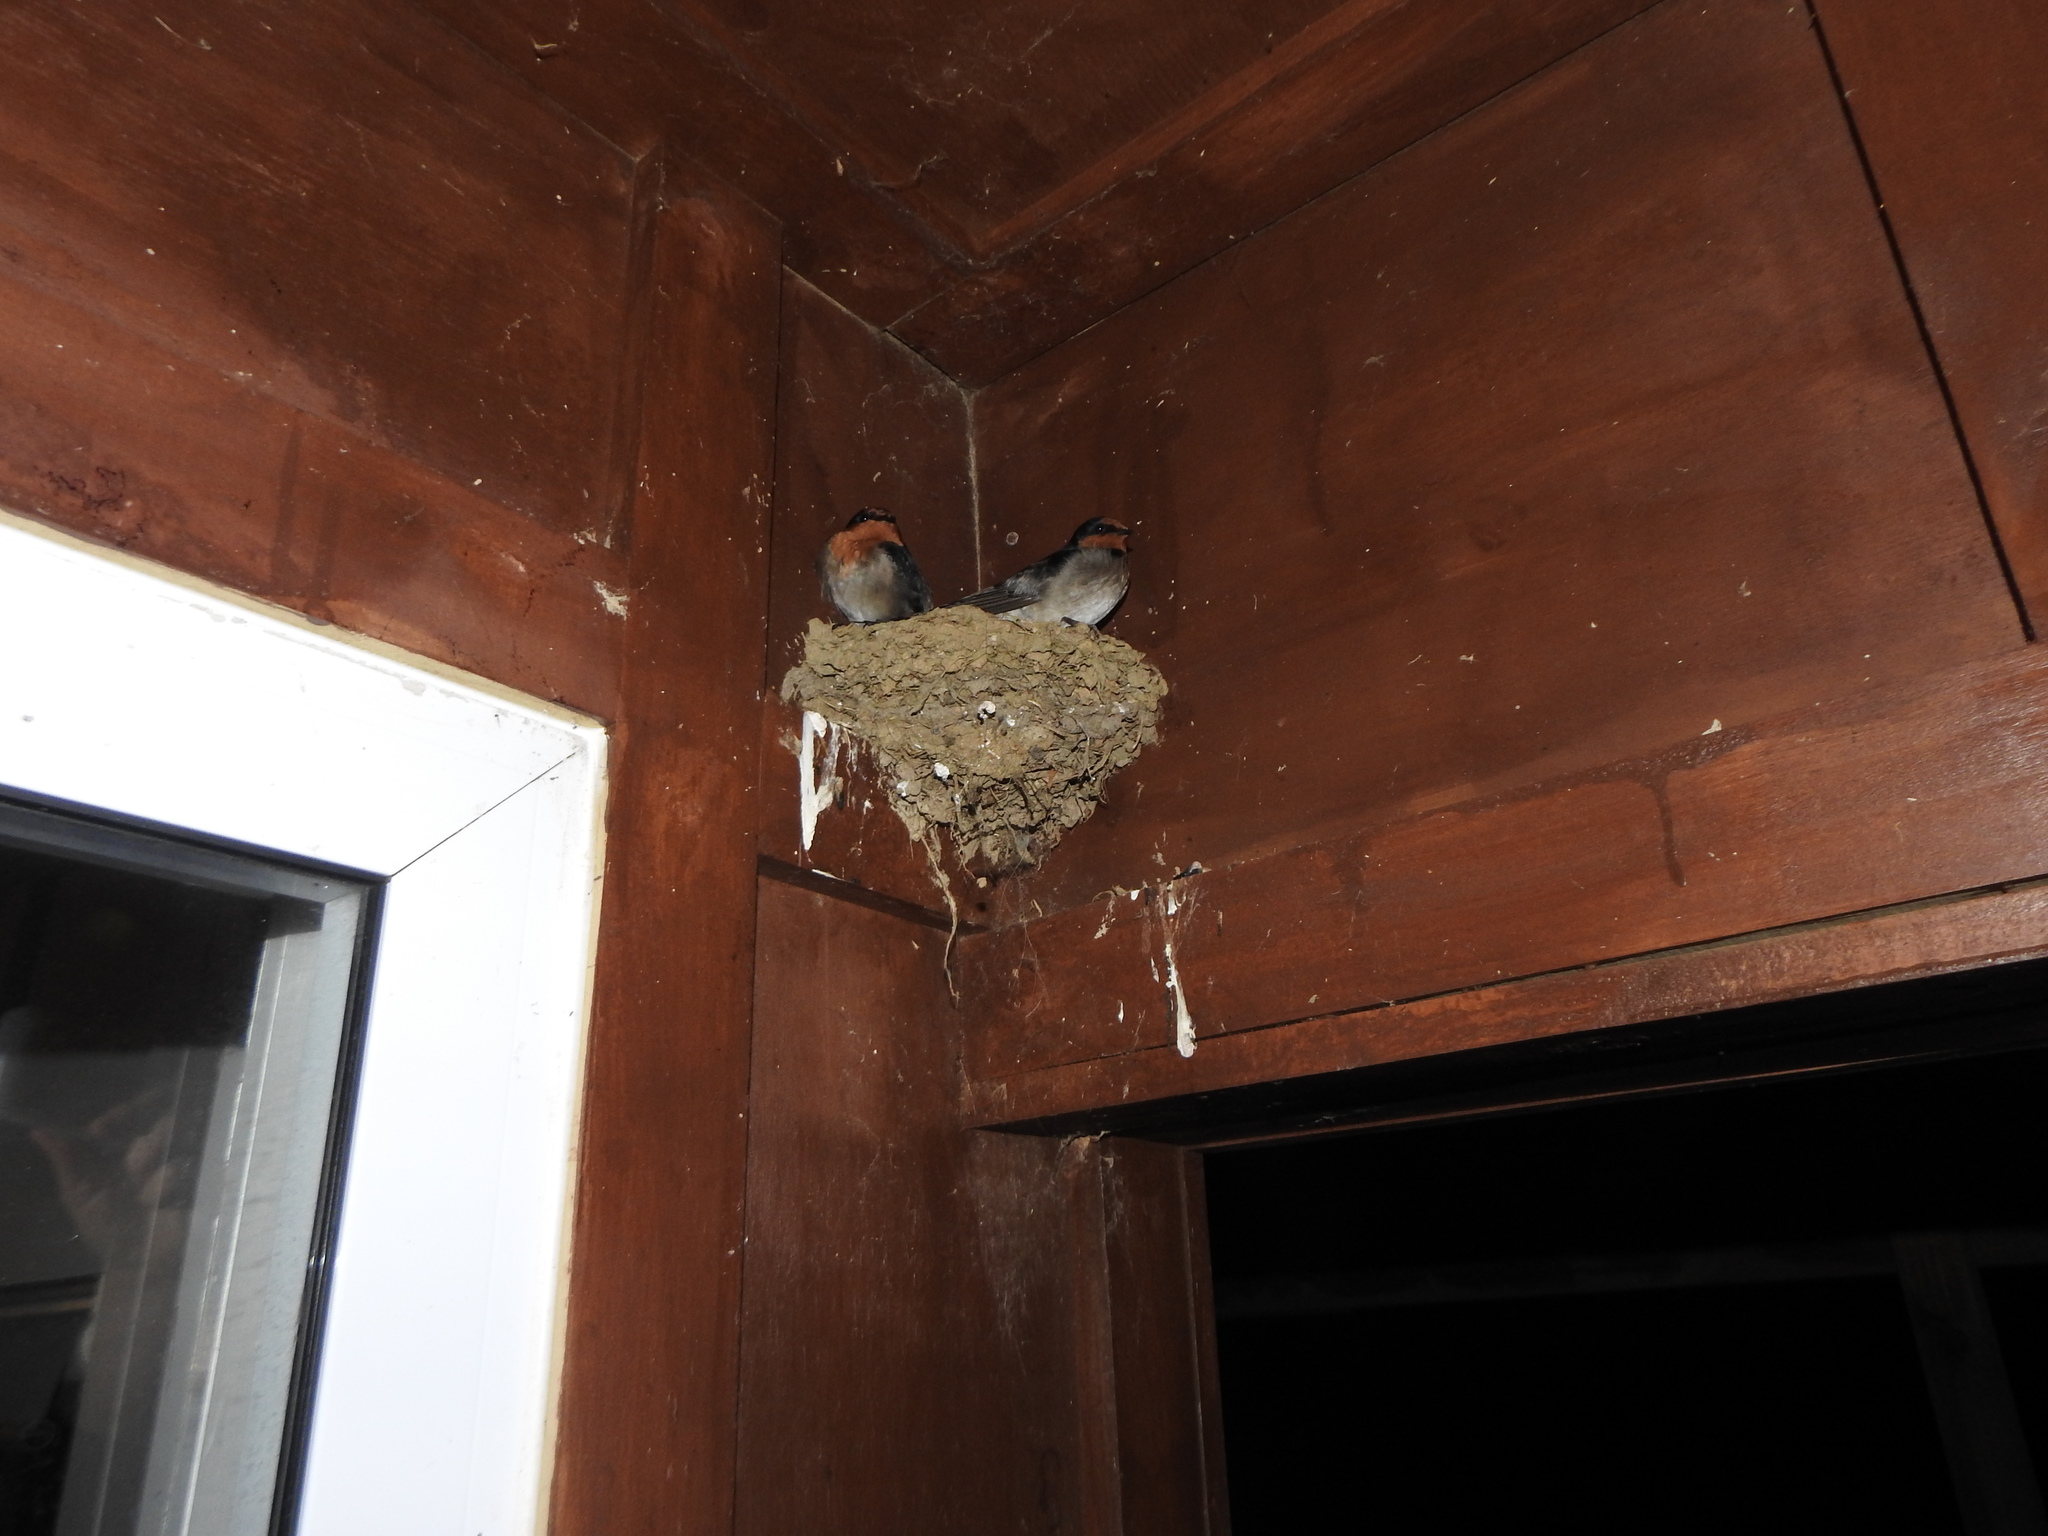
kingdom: Animalia
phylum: Chordata
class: Aves
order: Passeriformes
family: Hirundinidae
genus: Hirundo
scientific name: Hirundo neoxena
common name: Welcome swallow
